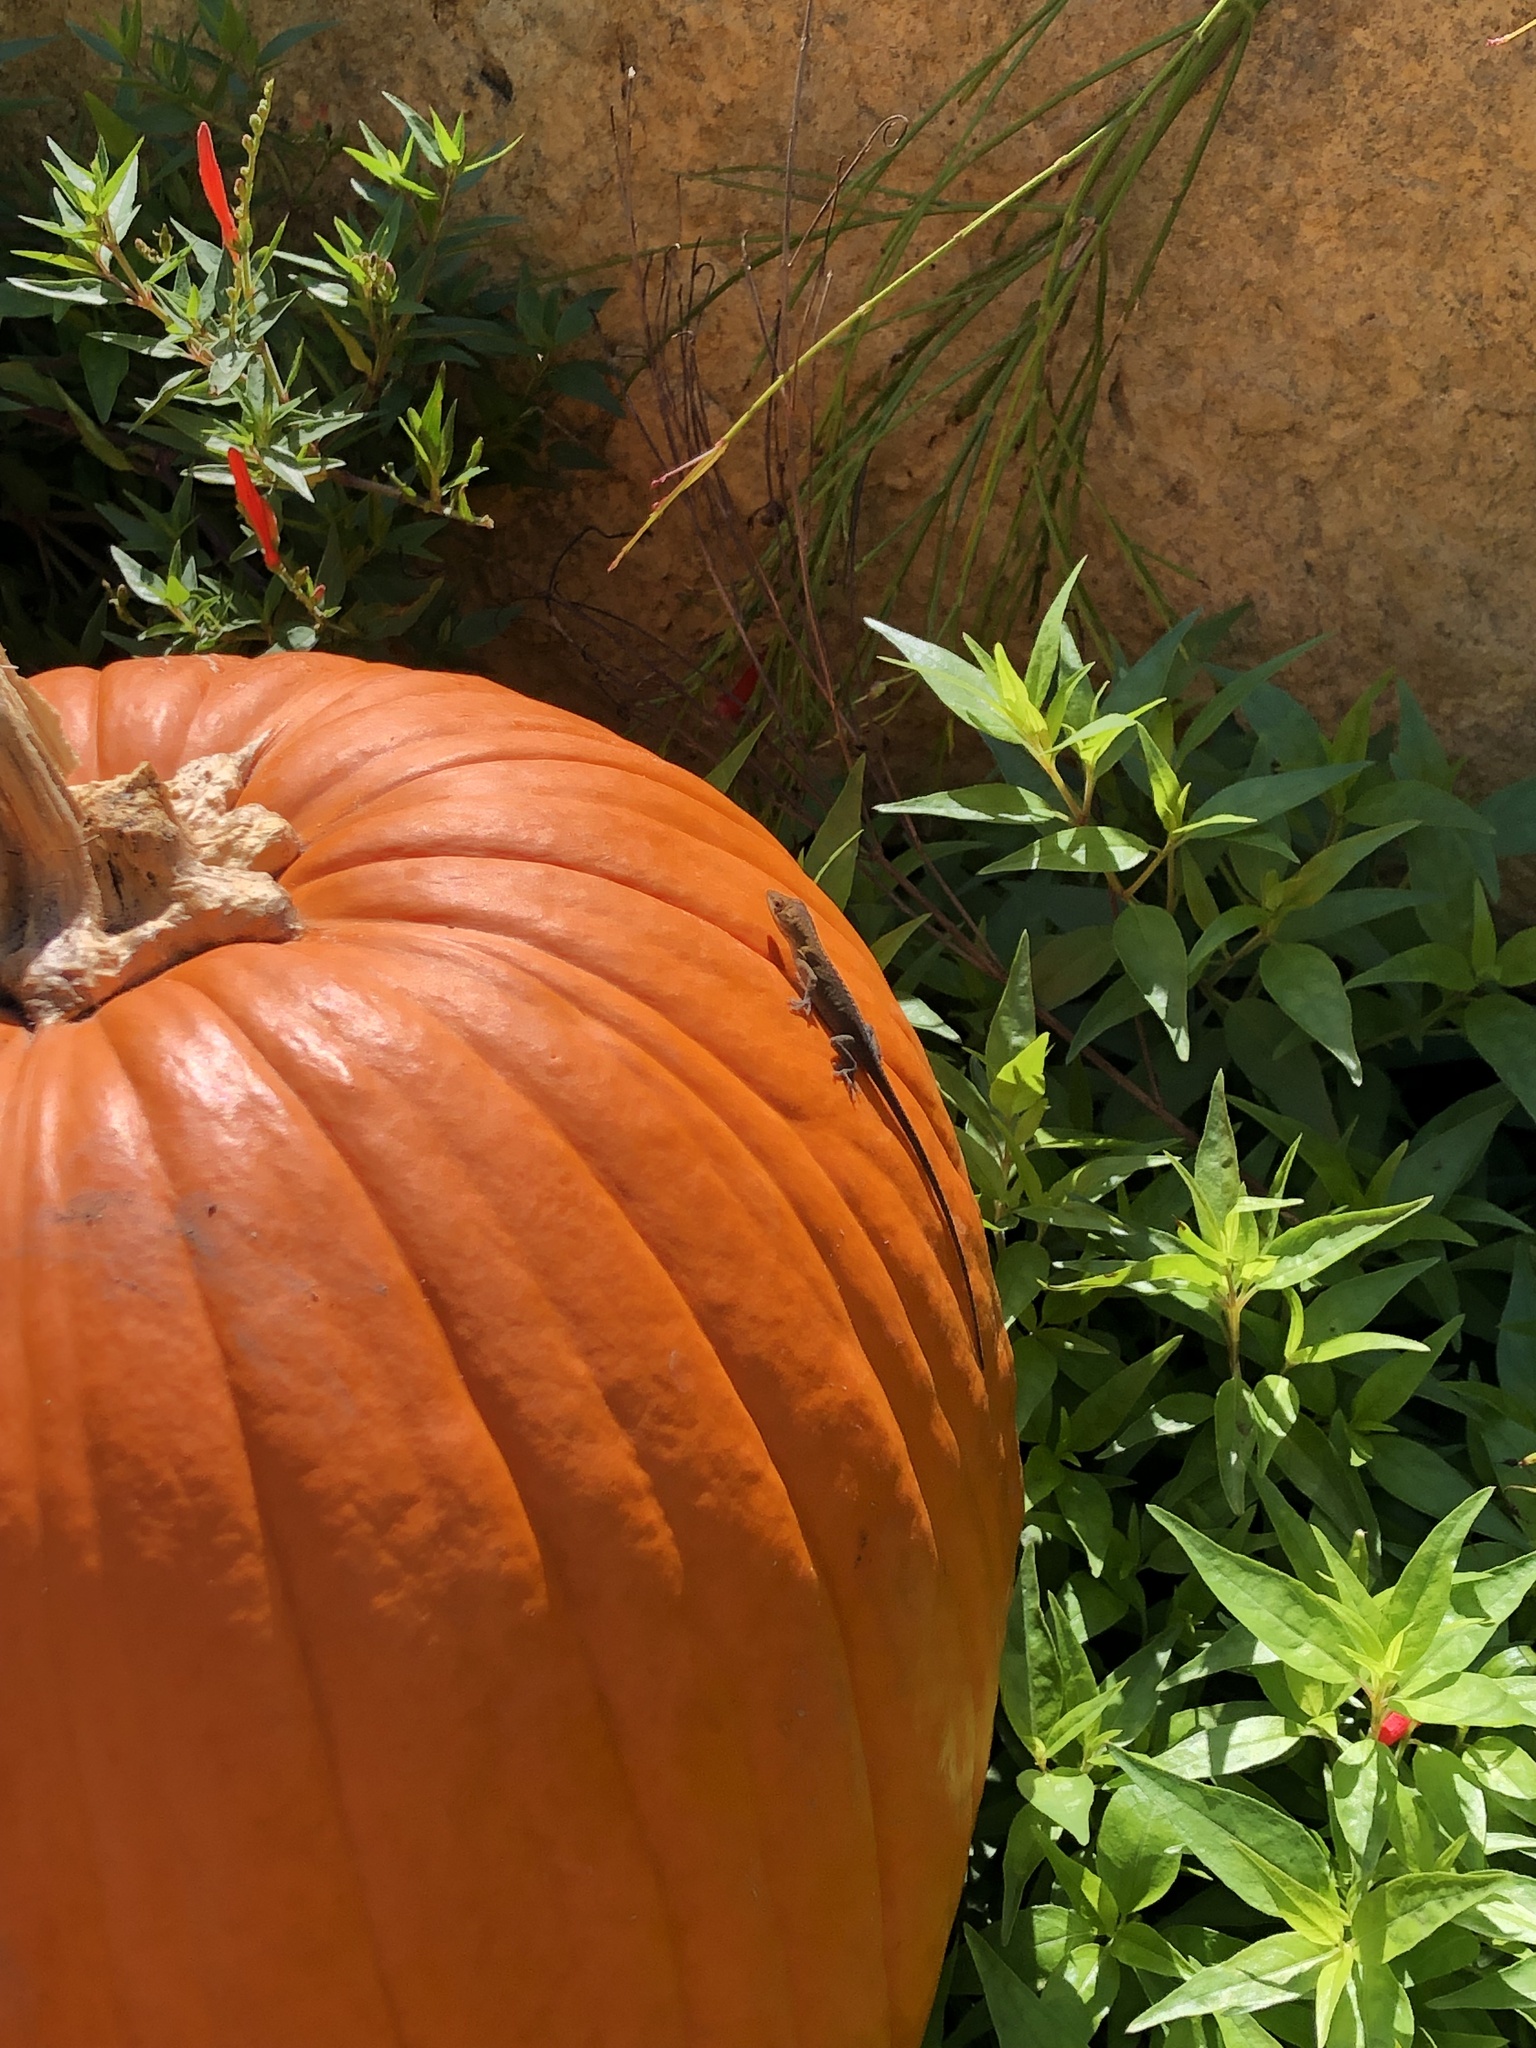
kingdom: Animalia
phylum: Chordata
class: Squamata
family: Dactyloidae
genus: Anolis
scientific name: Anolis carolinensis
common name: Green anole
